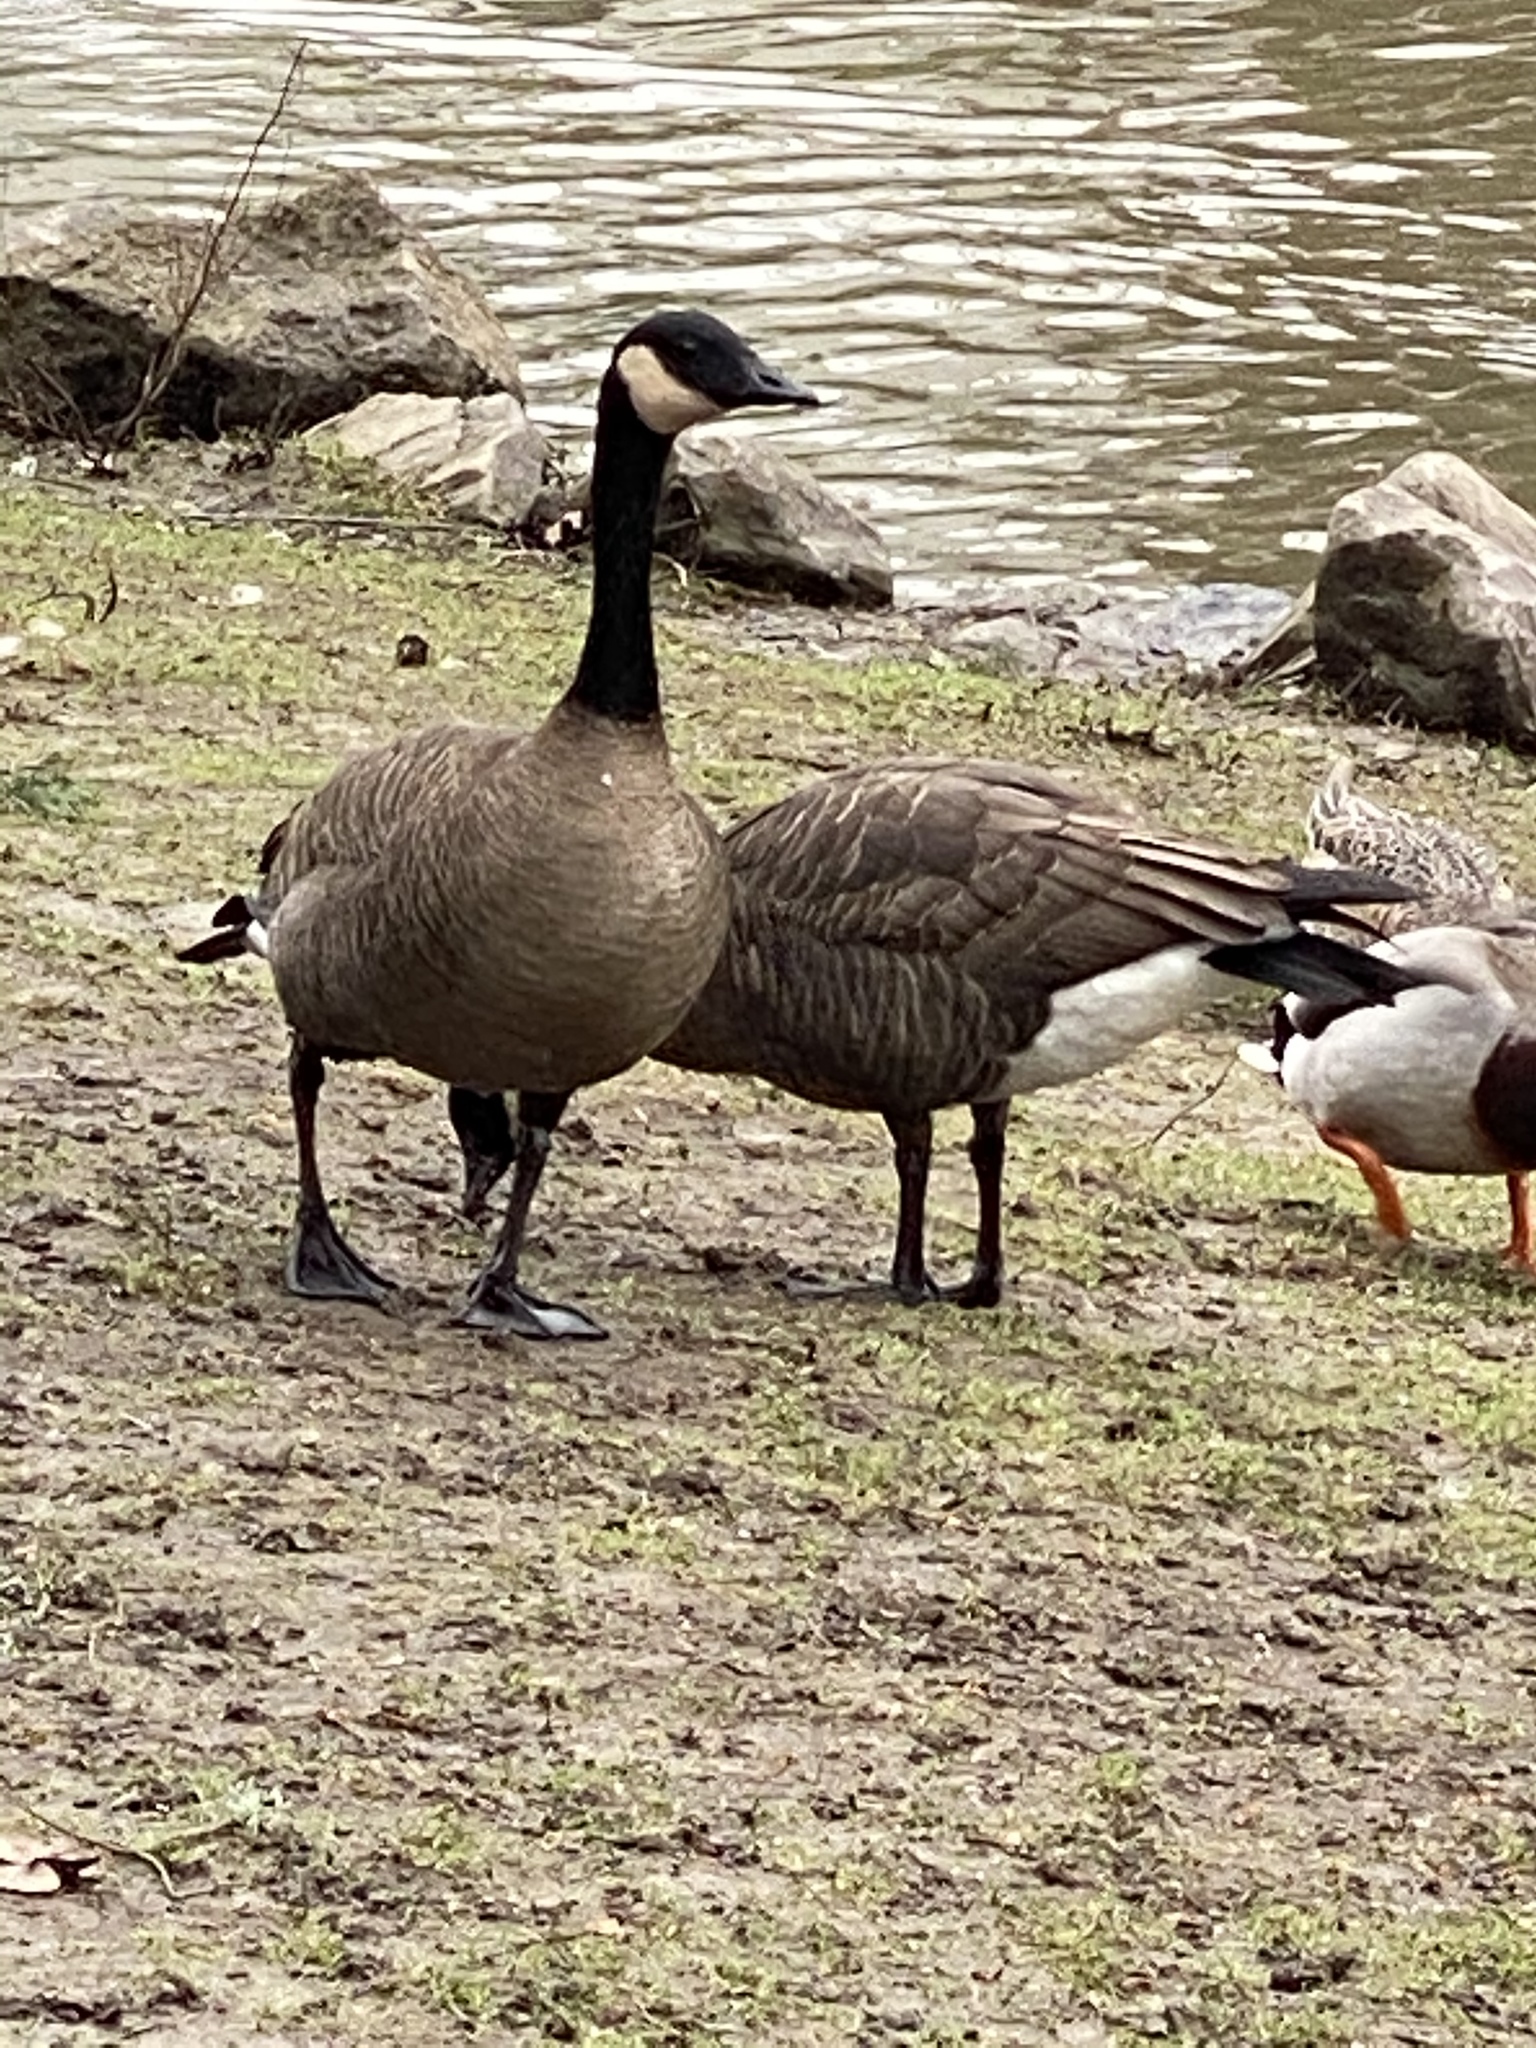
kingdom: Animalia
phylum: Chordata
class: Aves
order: Anseriformes
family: Anatidae
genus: Branta
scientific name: Branta canadensis
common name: Canada goose
